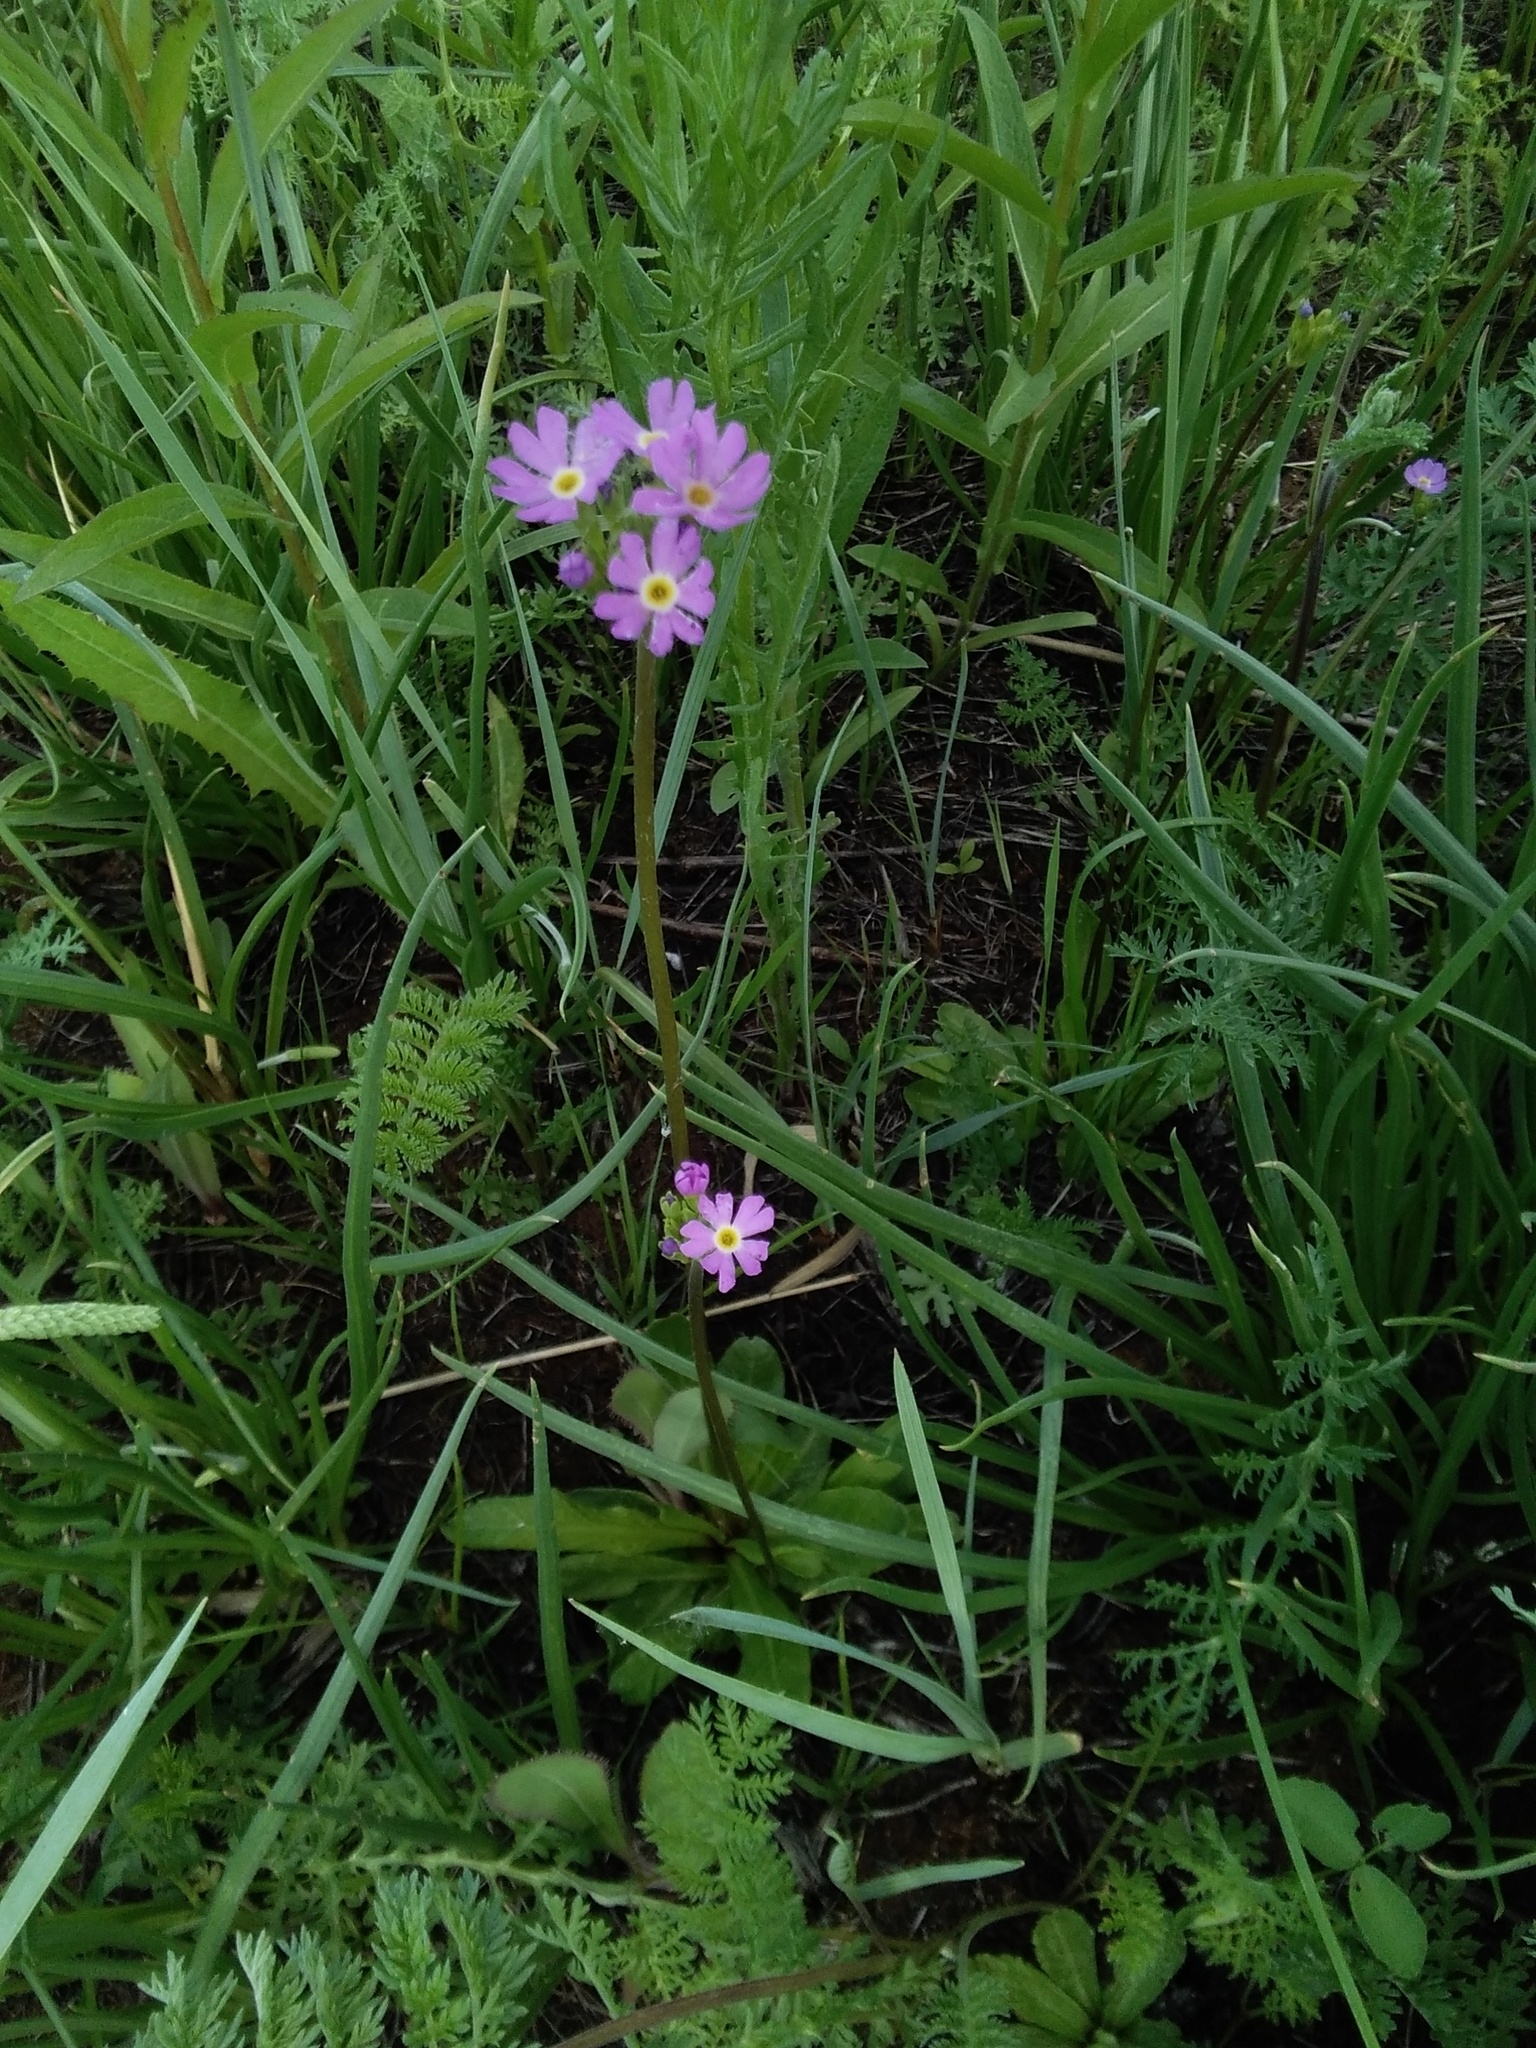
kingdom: Plantae
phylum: Tracheophyta
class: Magnoliopsida
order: Ericales
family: Primulaceae
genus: Primula
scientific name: Primula longiscapa
